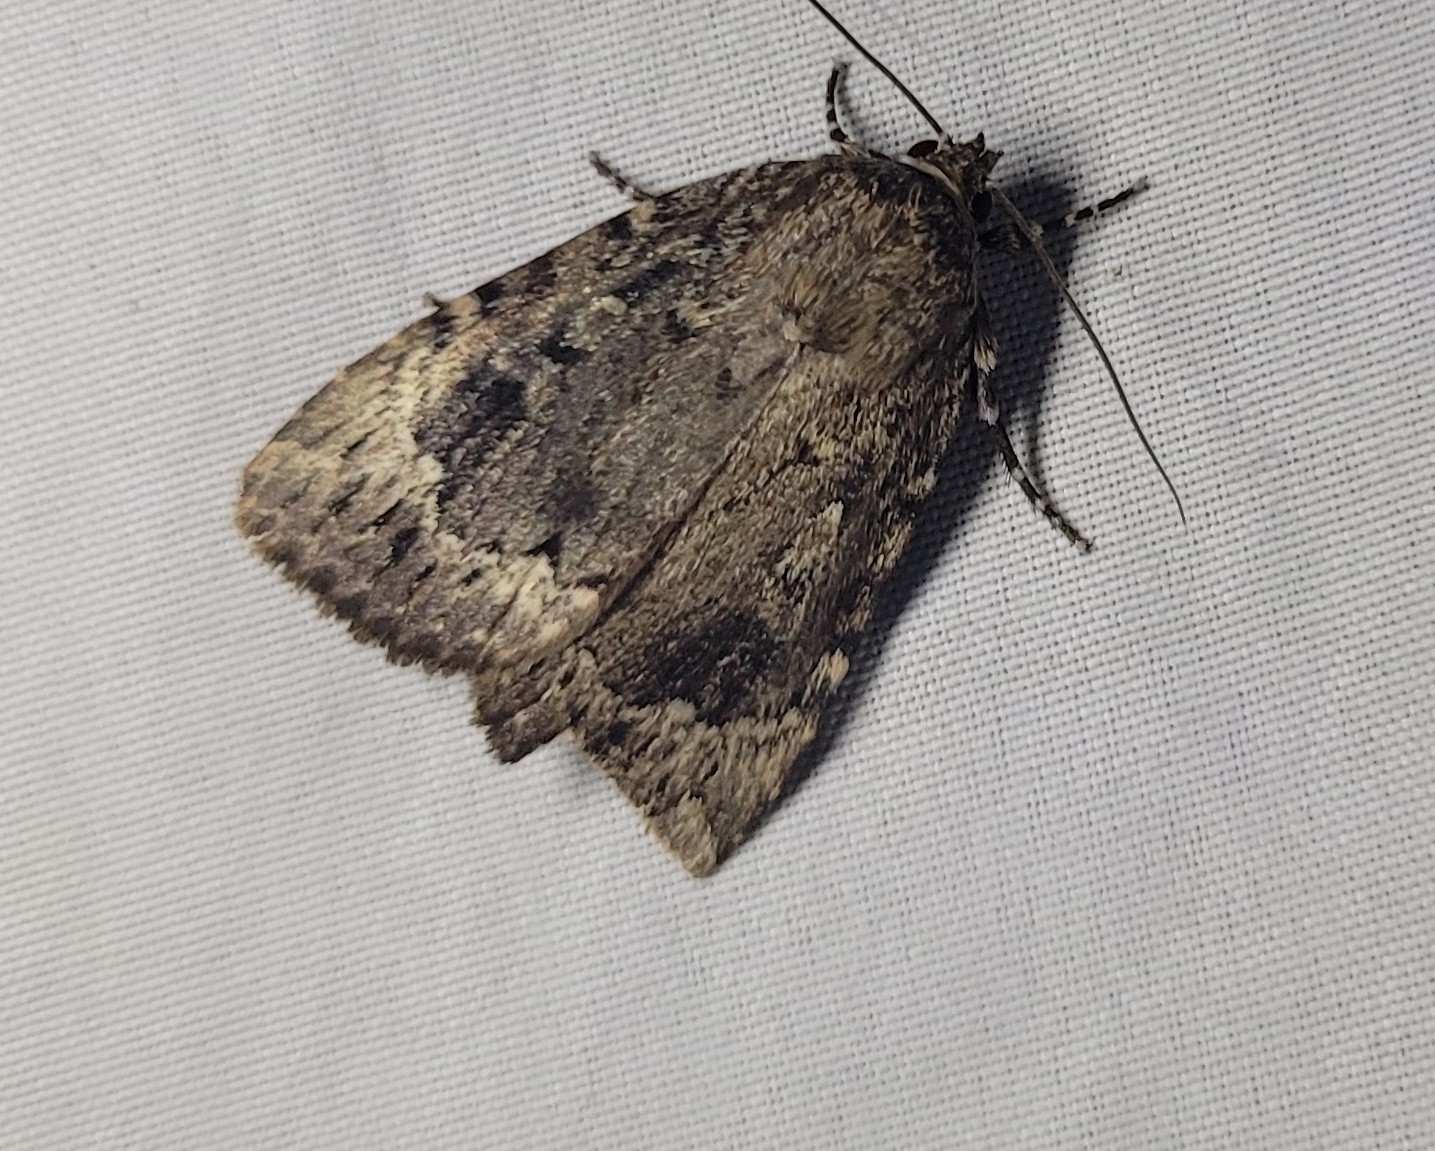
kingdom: Animalia
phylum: Arthropoda
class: Insecta
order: Lepidoptera
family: Noctuidae
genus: Amphipyra
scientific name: Amphipyra pyramidoides
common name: American copper underwing
